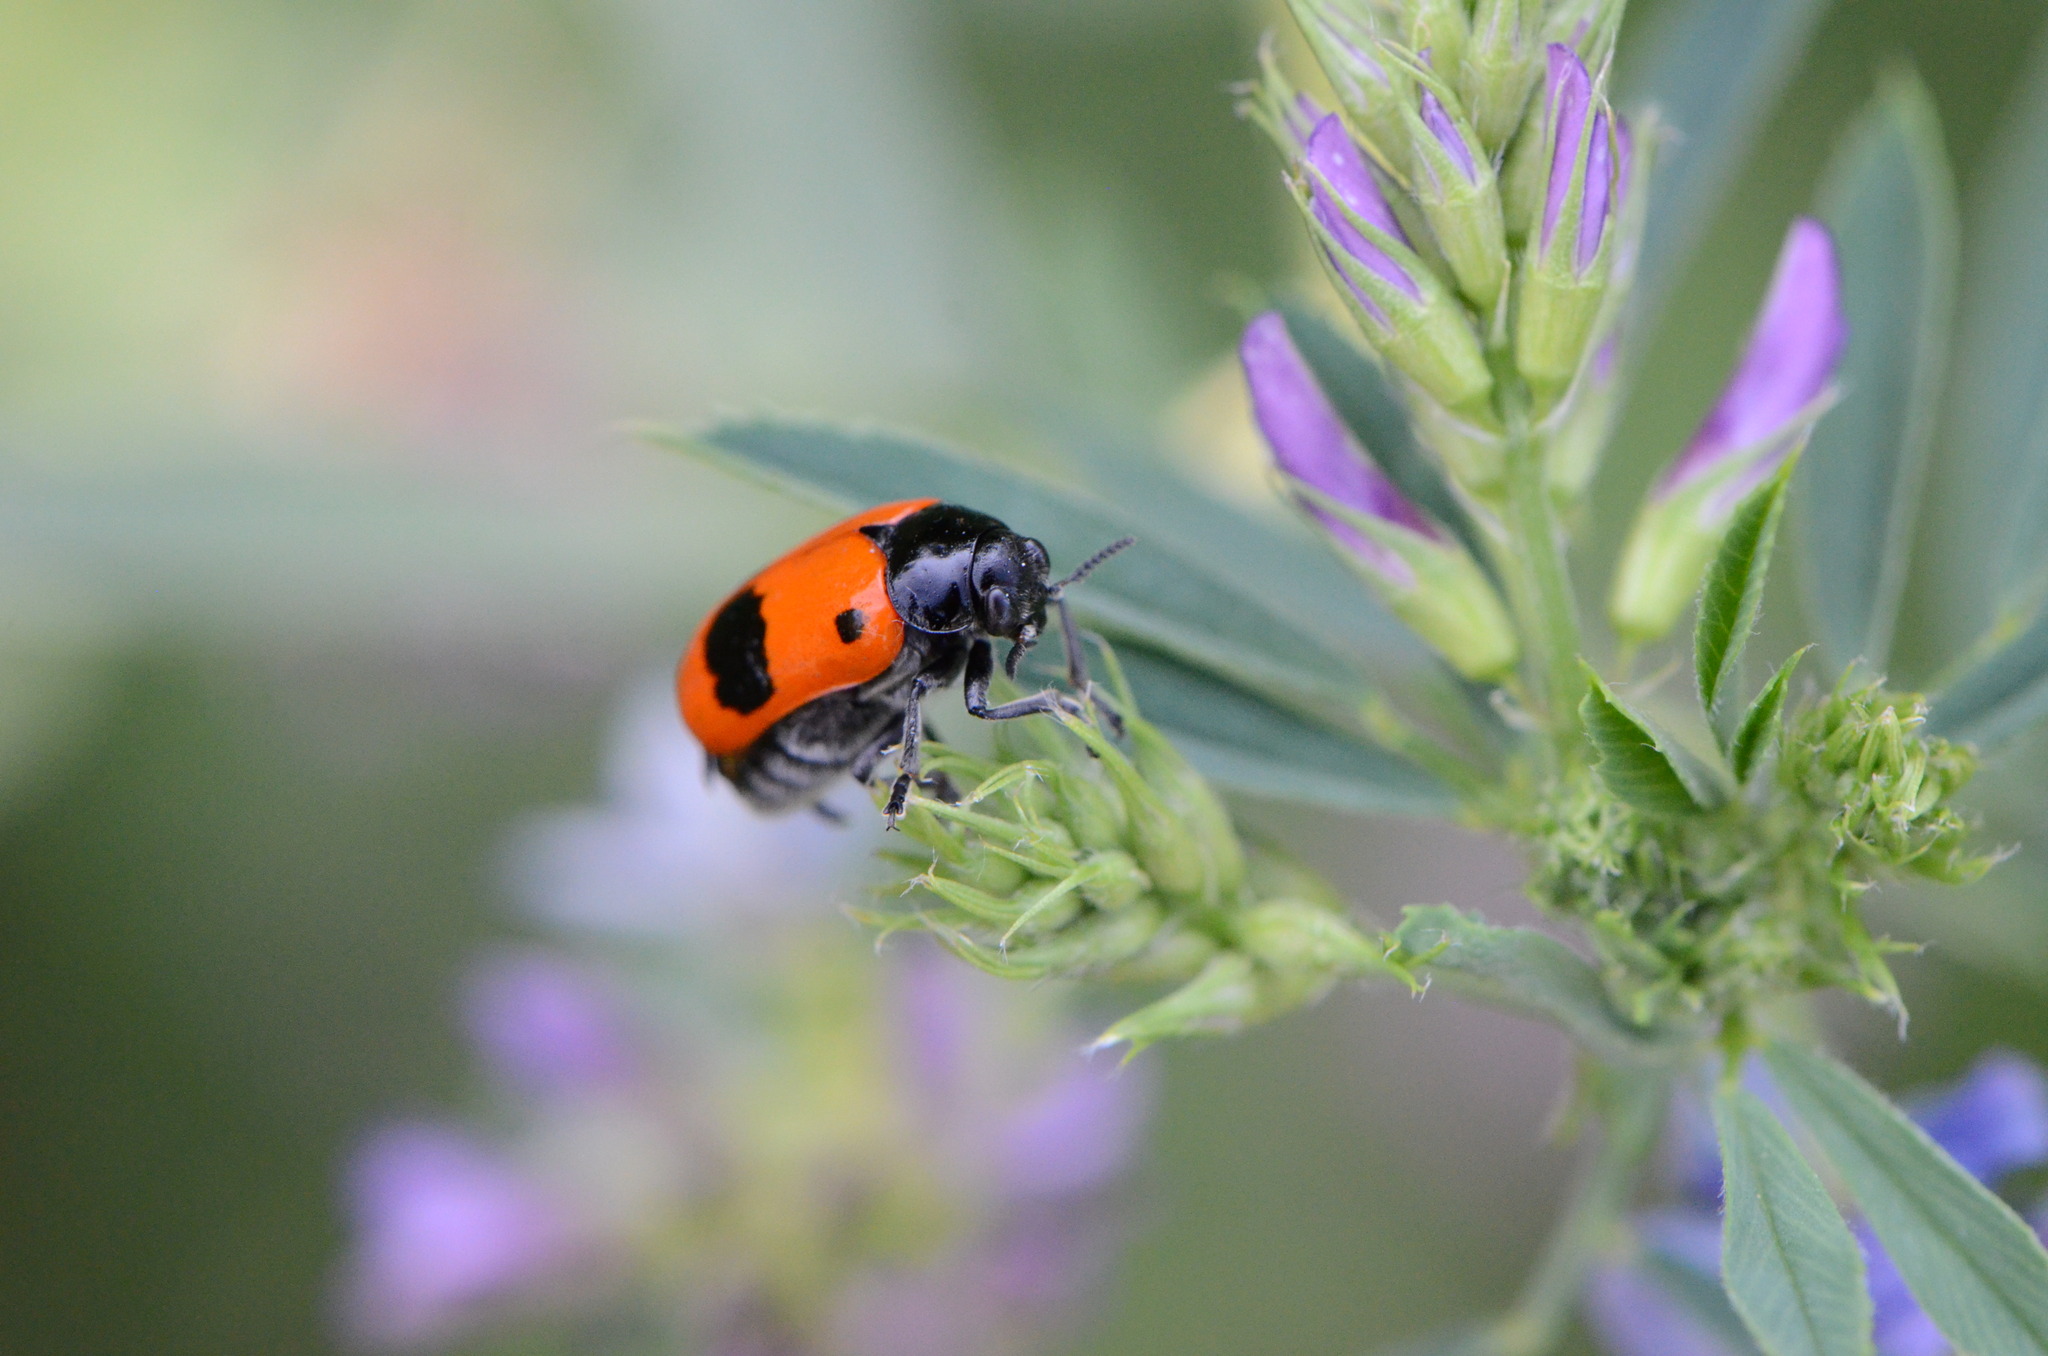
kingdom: Animalia
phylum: Arthropoda
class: Insecta
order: Coleoptera
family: Chrysomelidae
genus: Clytra
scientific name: Clytra laeviuscula
